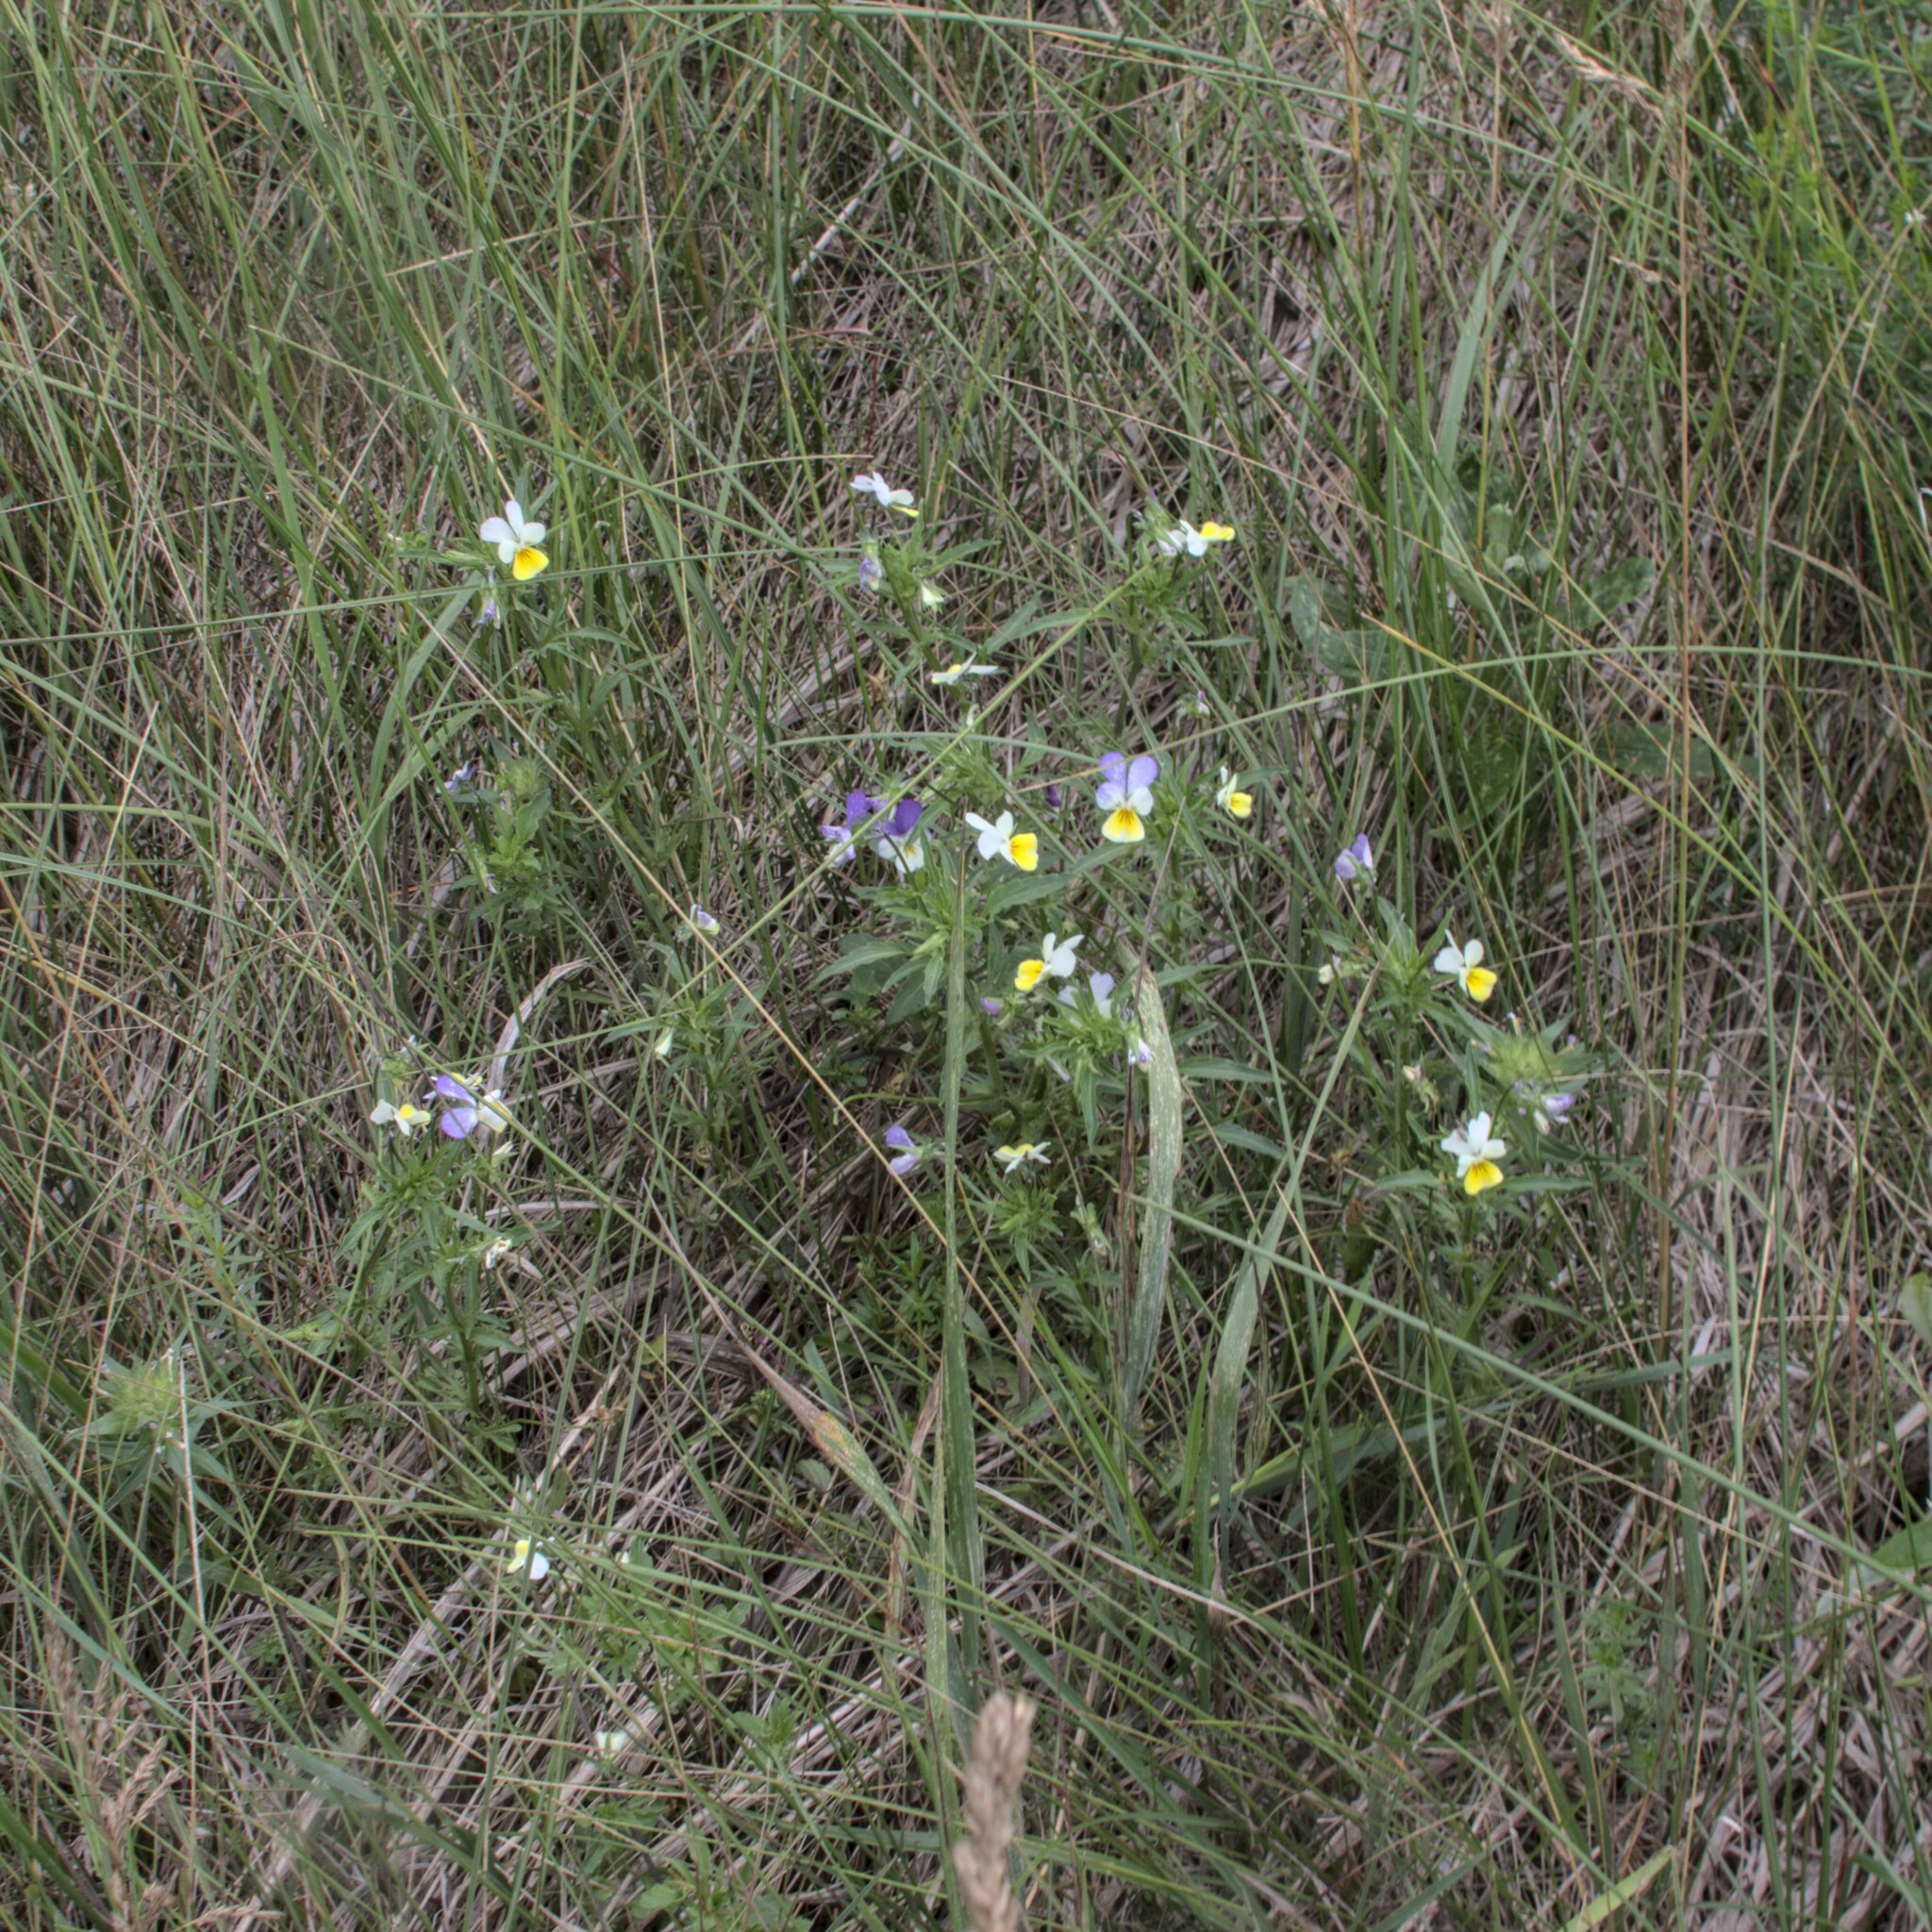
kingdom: Plantae
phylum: Tracheophyta
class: Magnoliopsida
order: Malpighiales
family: Violaceae
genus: Viola
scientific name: Viola tricolor
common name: Pansy
